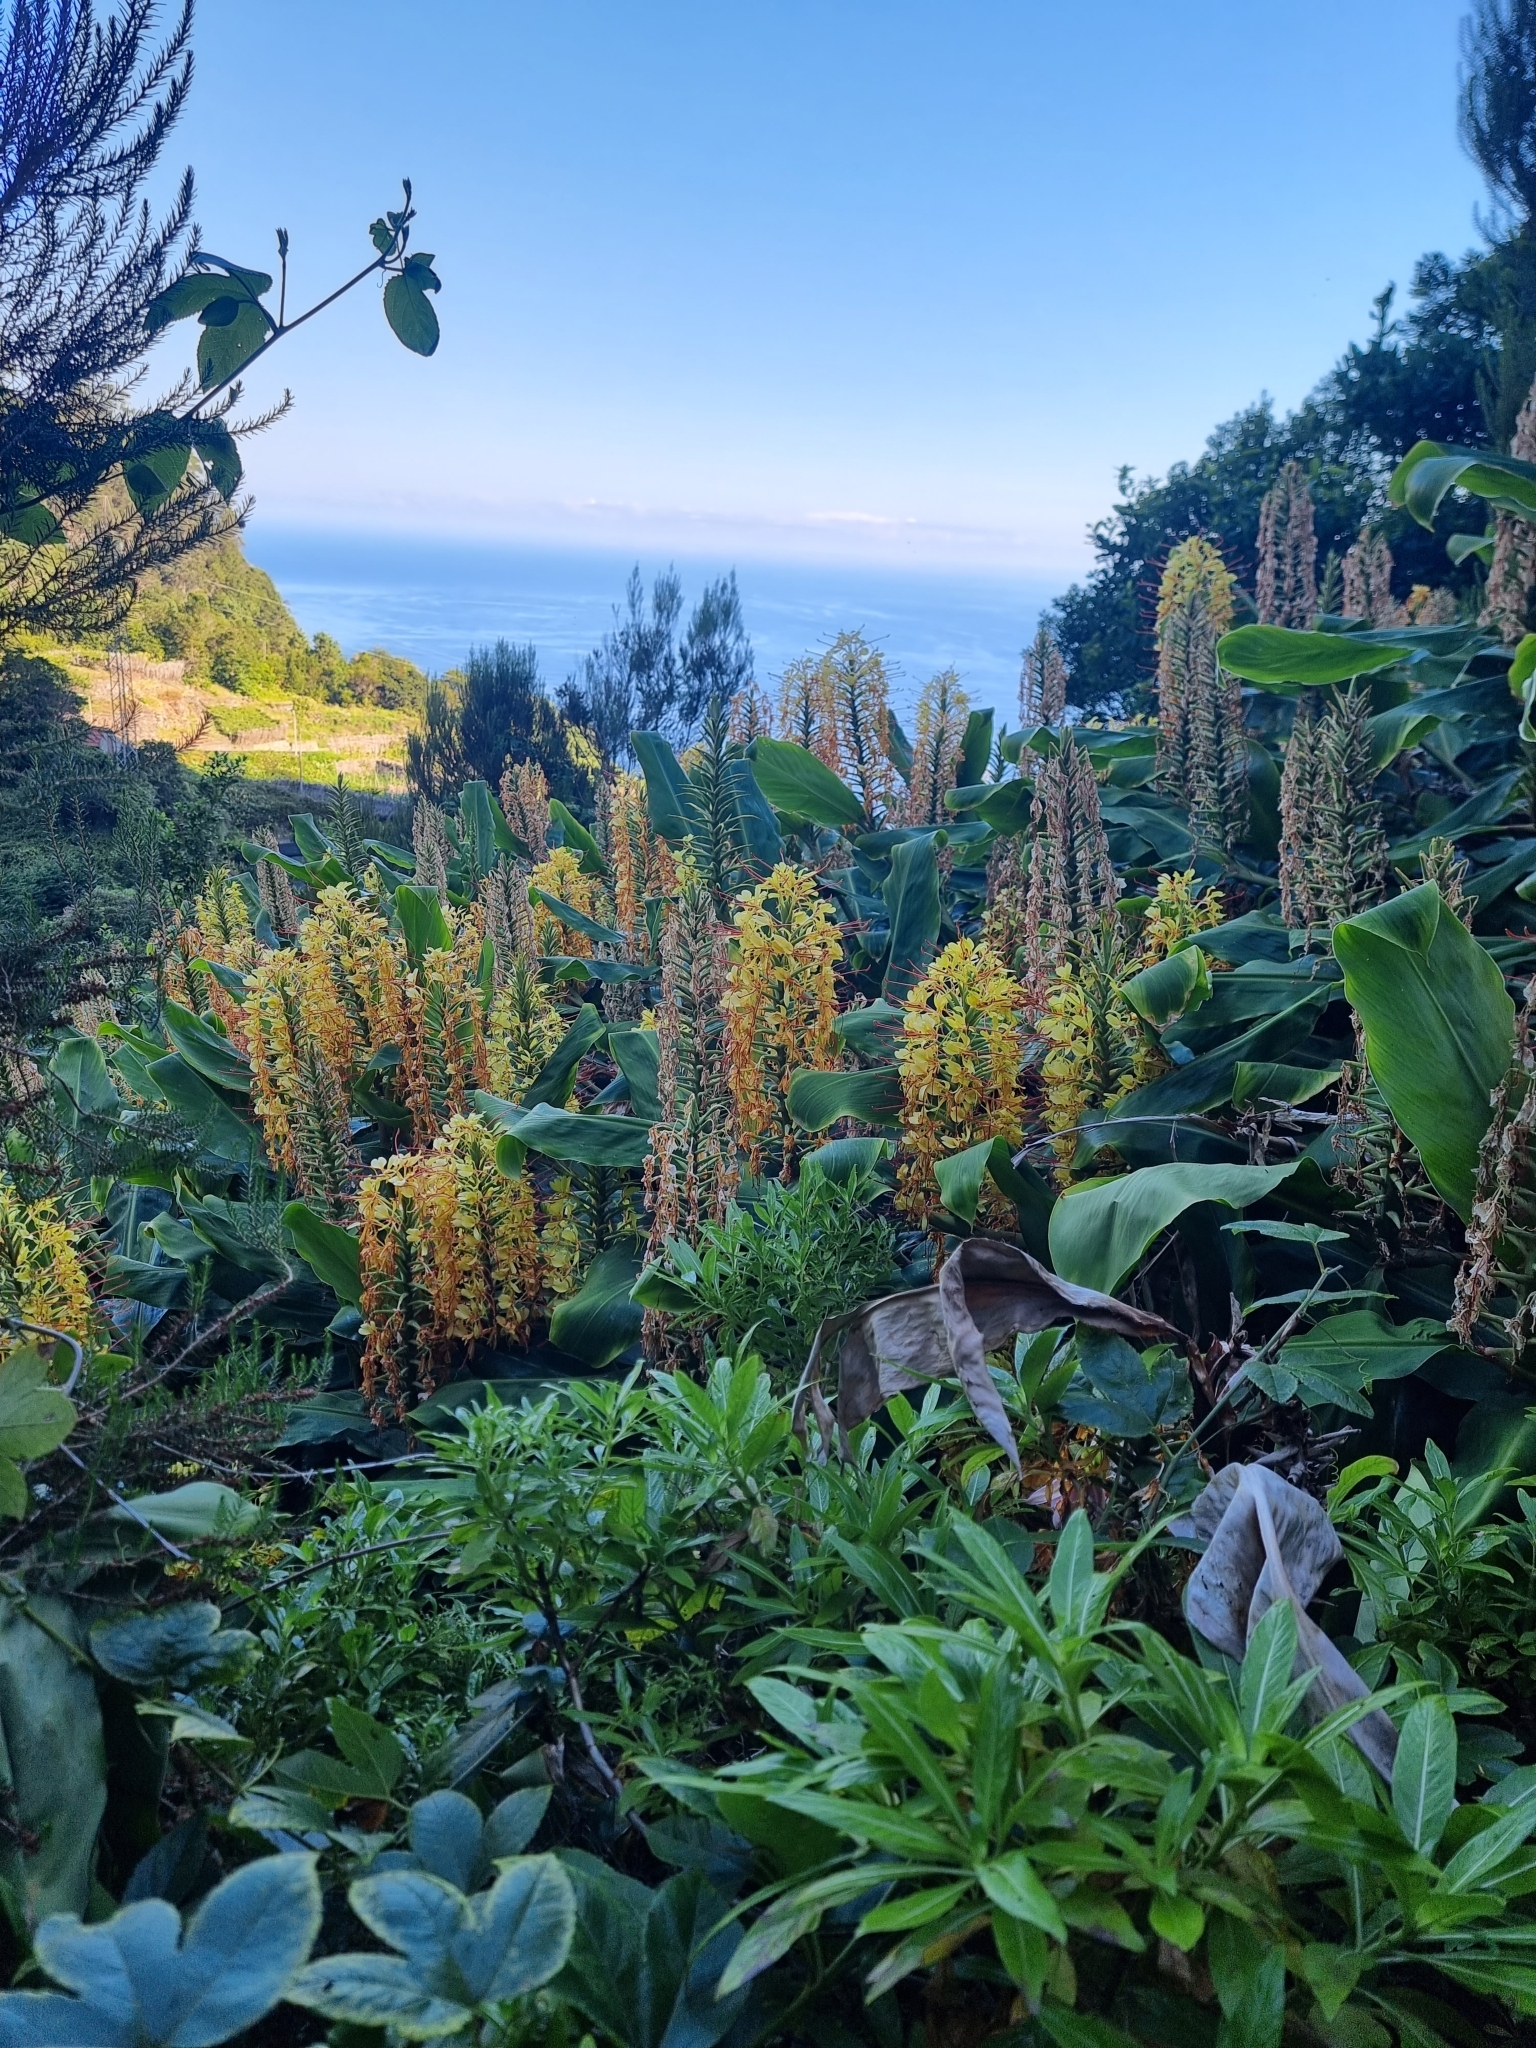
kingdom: Plantae
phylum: Tracheophyta
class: Liliopsida
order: Zingiberales
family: Zingiberaceae
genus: Hedychium
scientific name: Hedychium gardnerianum
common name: Himalayan ginger
